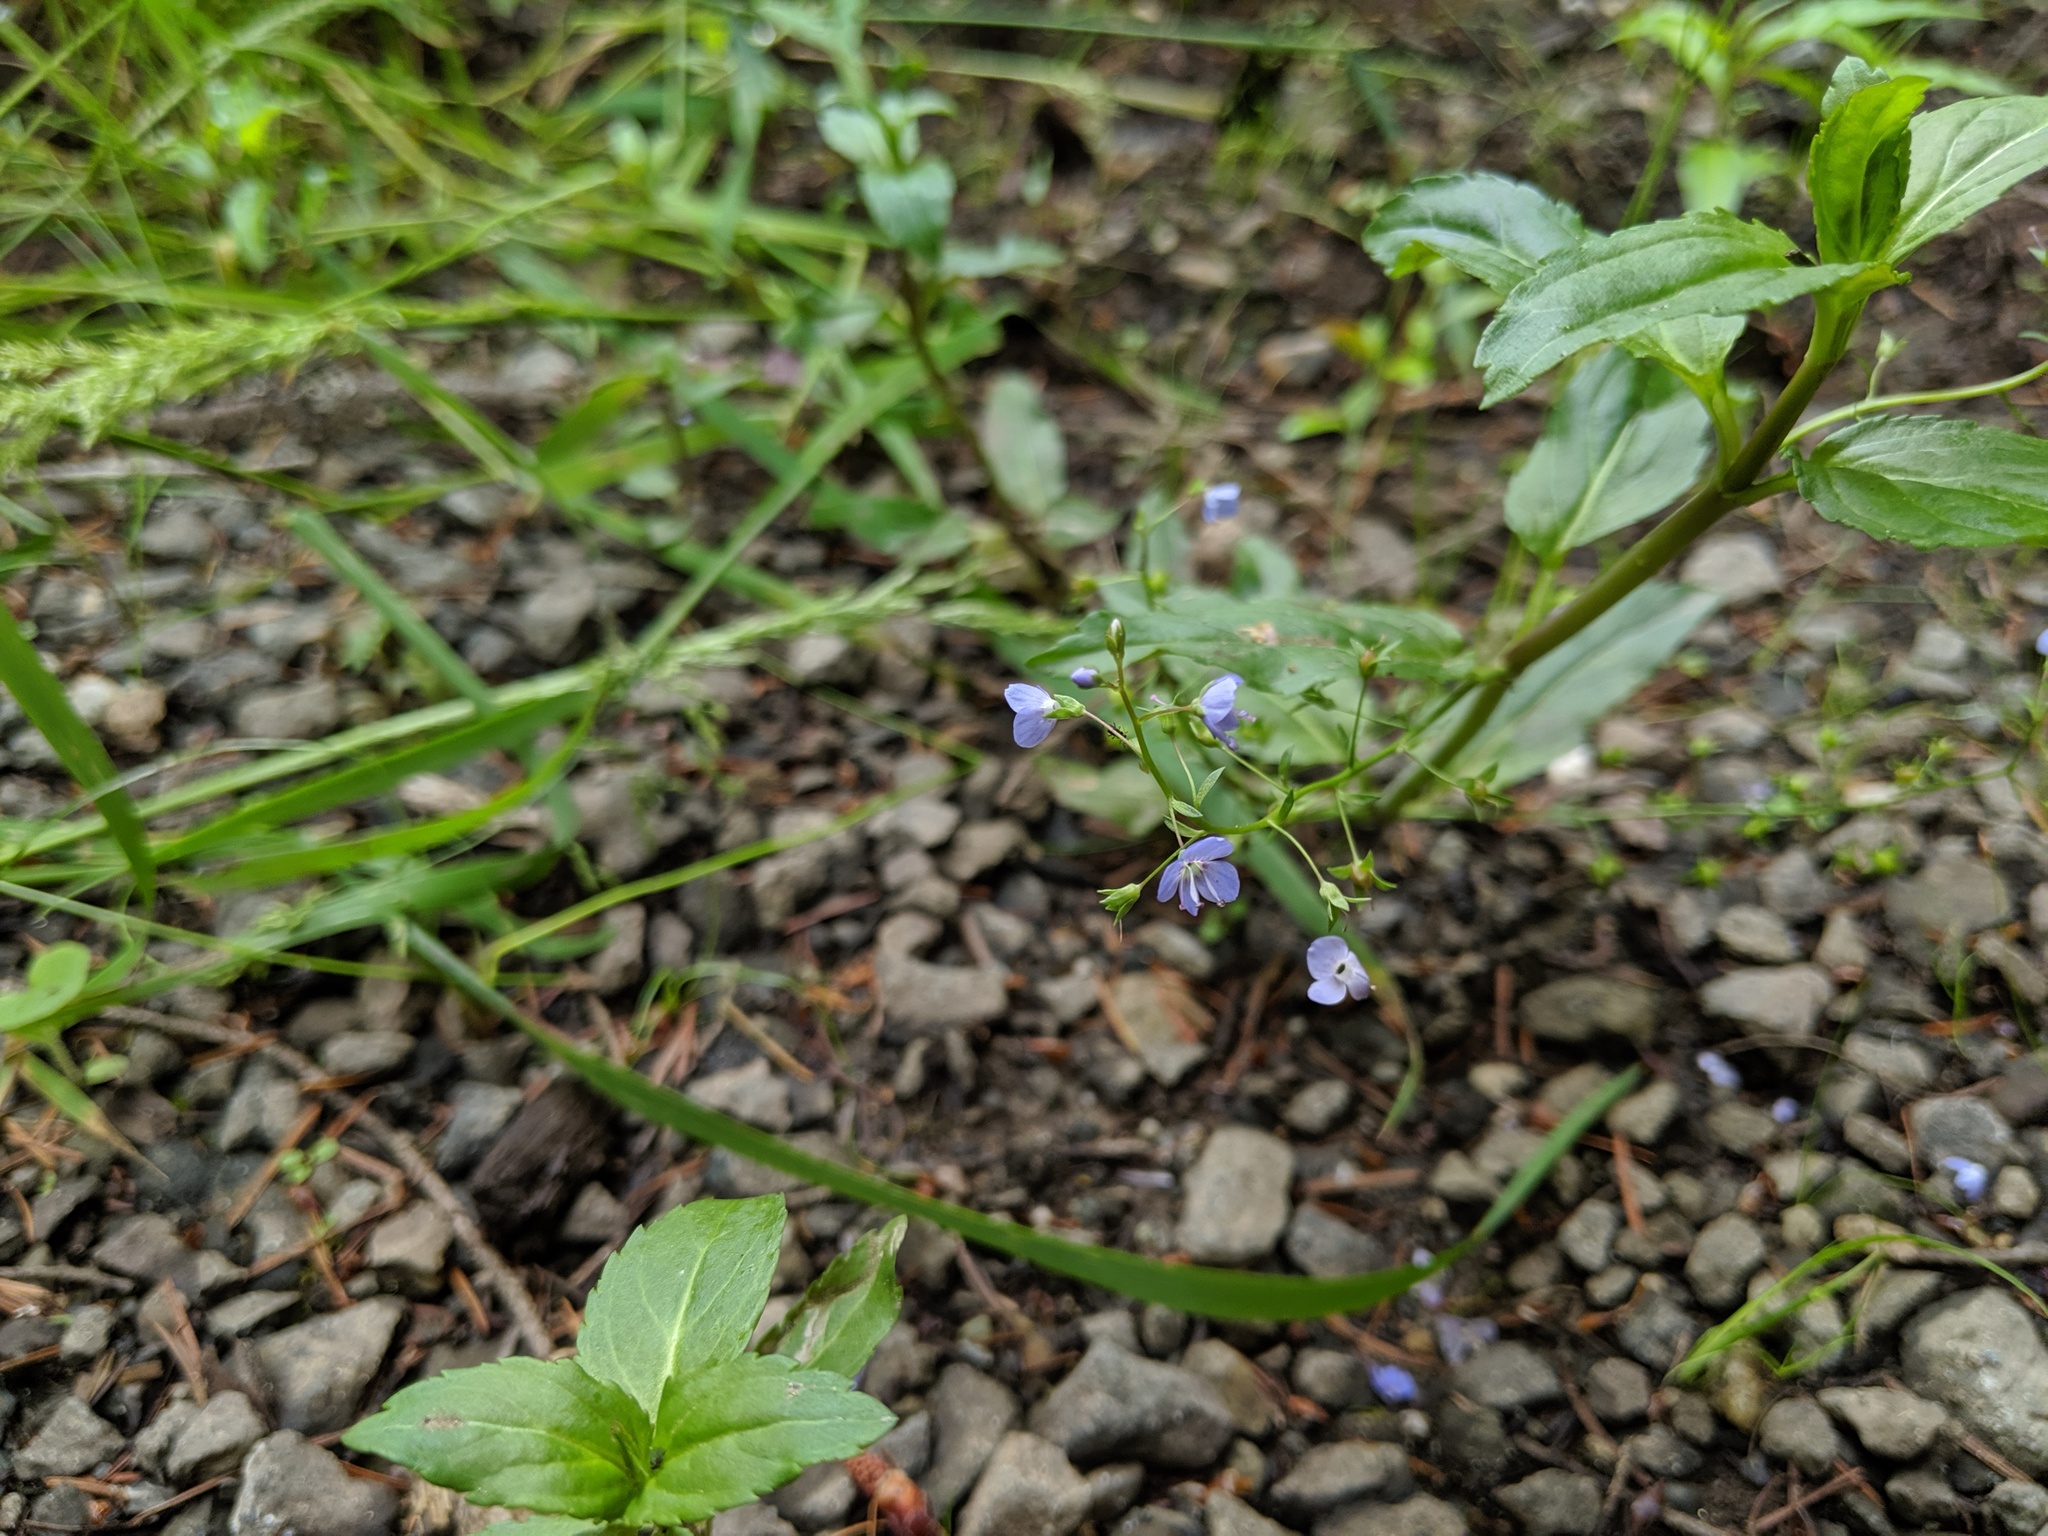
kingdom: Plantae
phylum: Tracheophyta
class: Magnoliopsida
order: Lamiales
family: Plantaginaceae
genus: Veronica
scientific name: Veronica americana
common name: American brooklime
